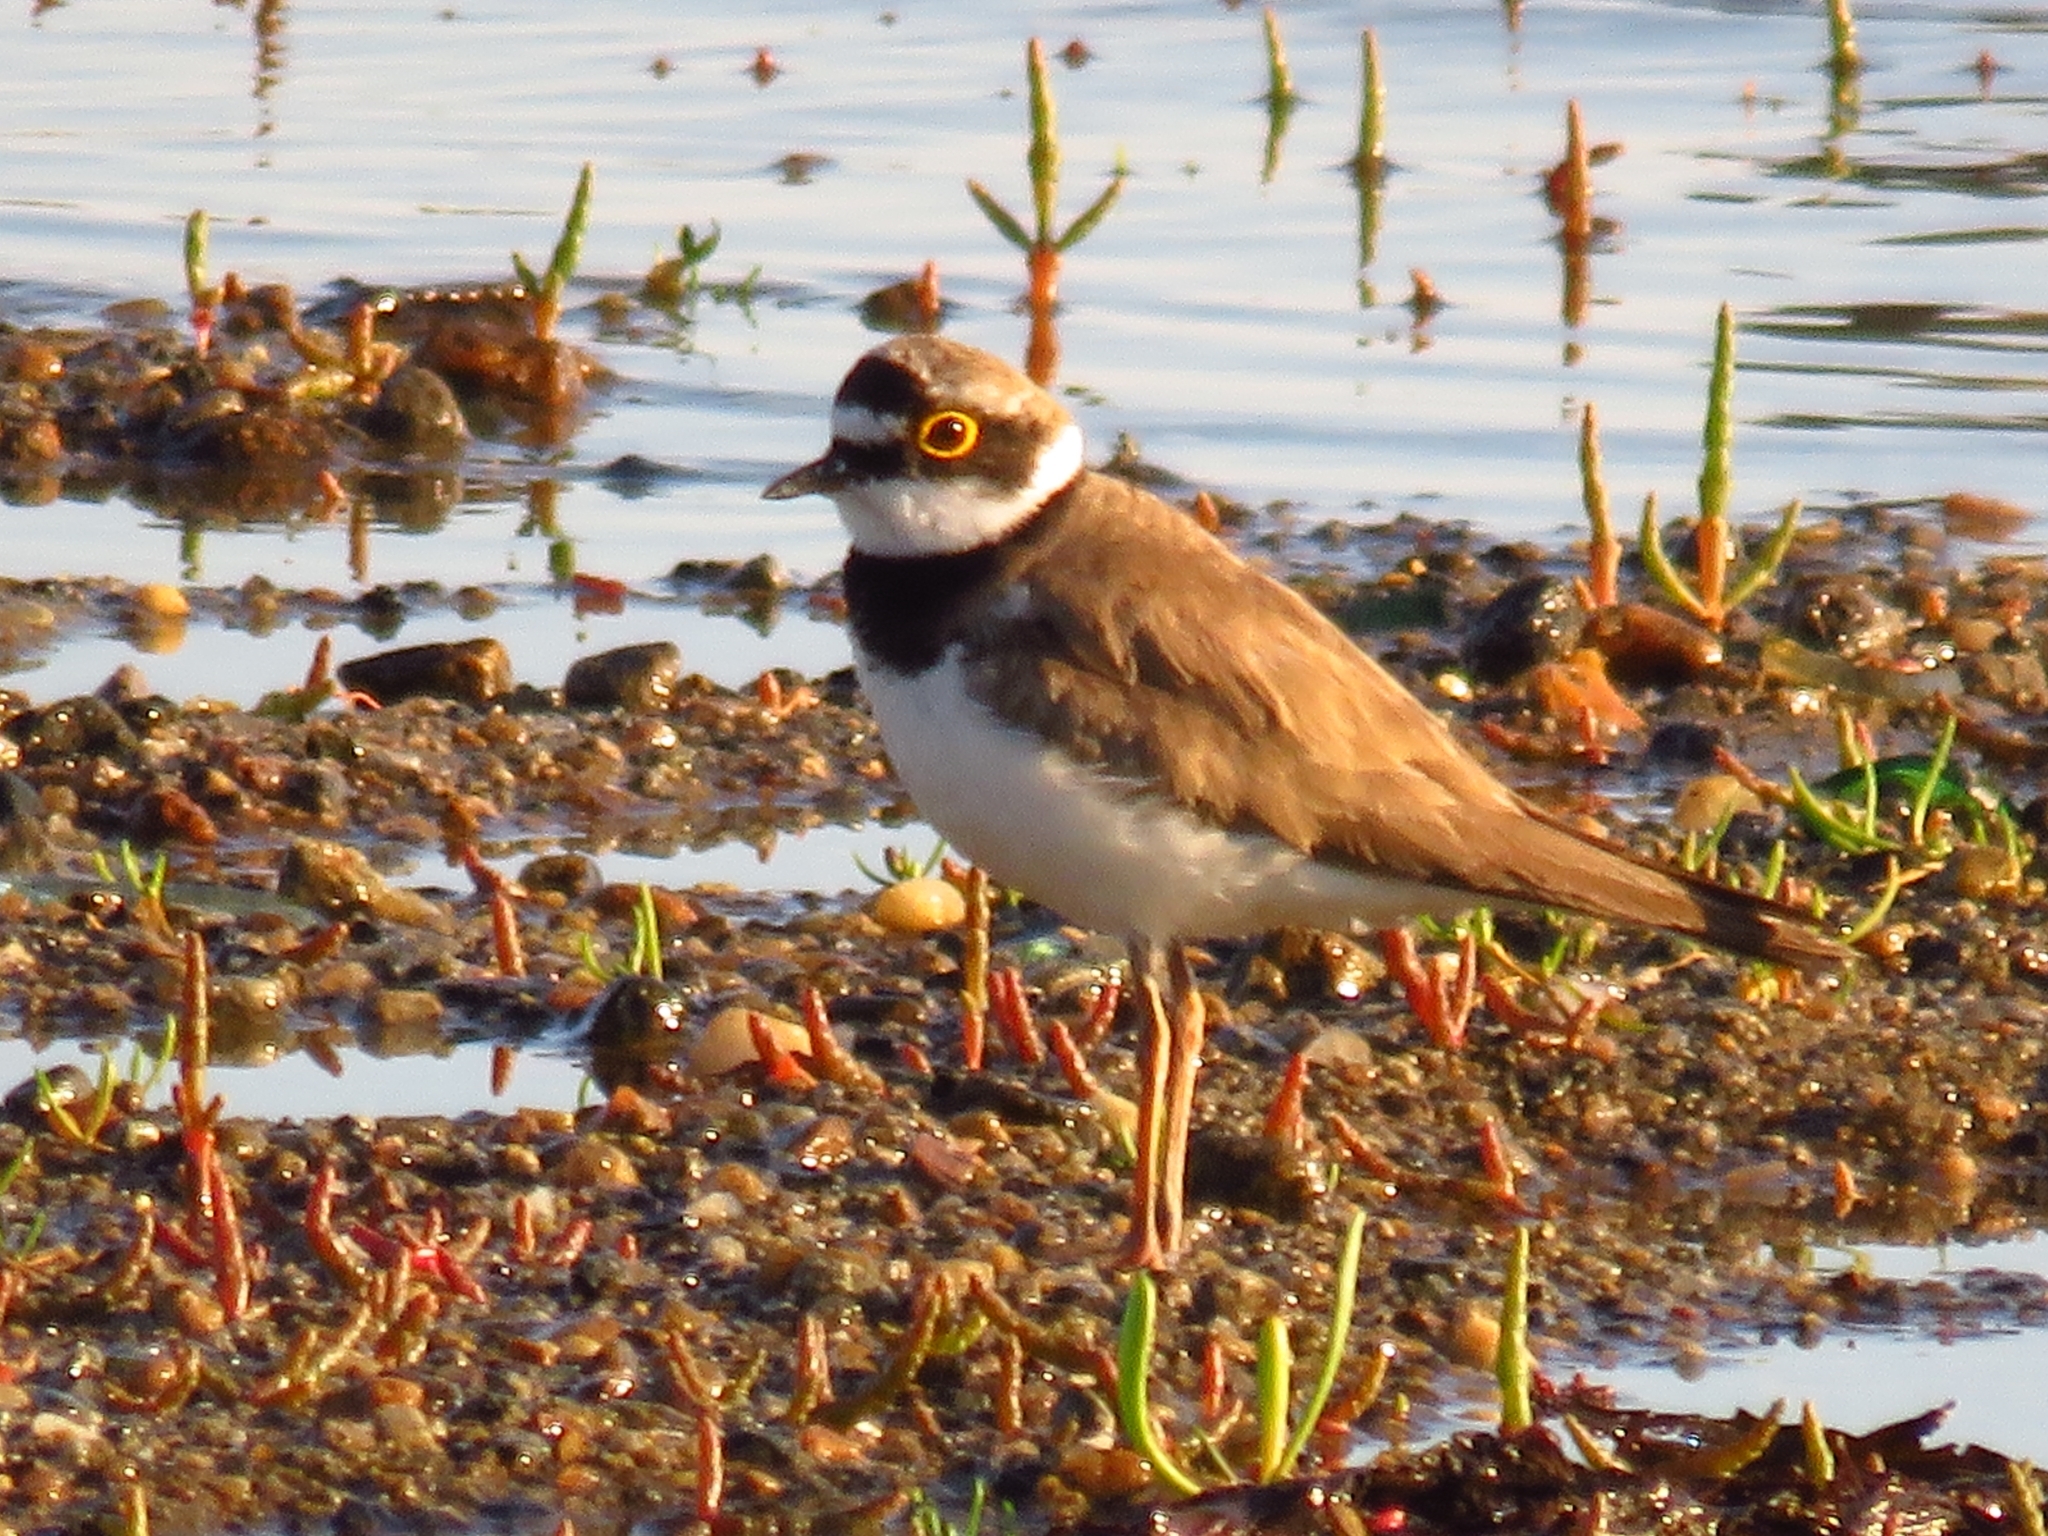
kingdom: Animalia
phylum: Chordata
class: Aves
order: Charadriiformes
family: Charadriidae
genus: Charadrius
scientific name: Charadrius dubius
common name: Little ringed plover
